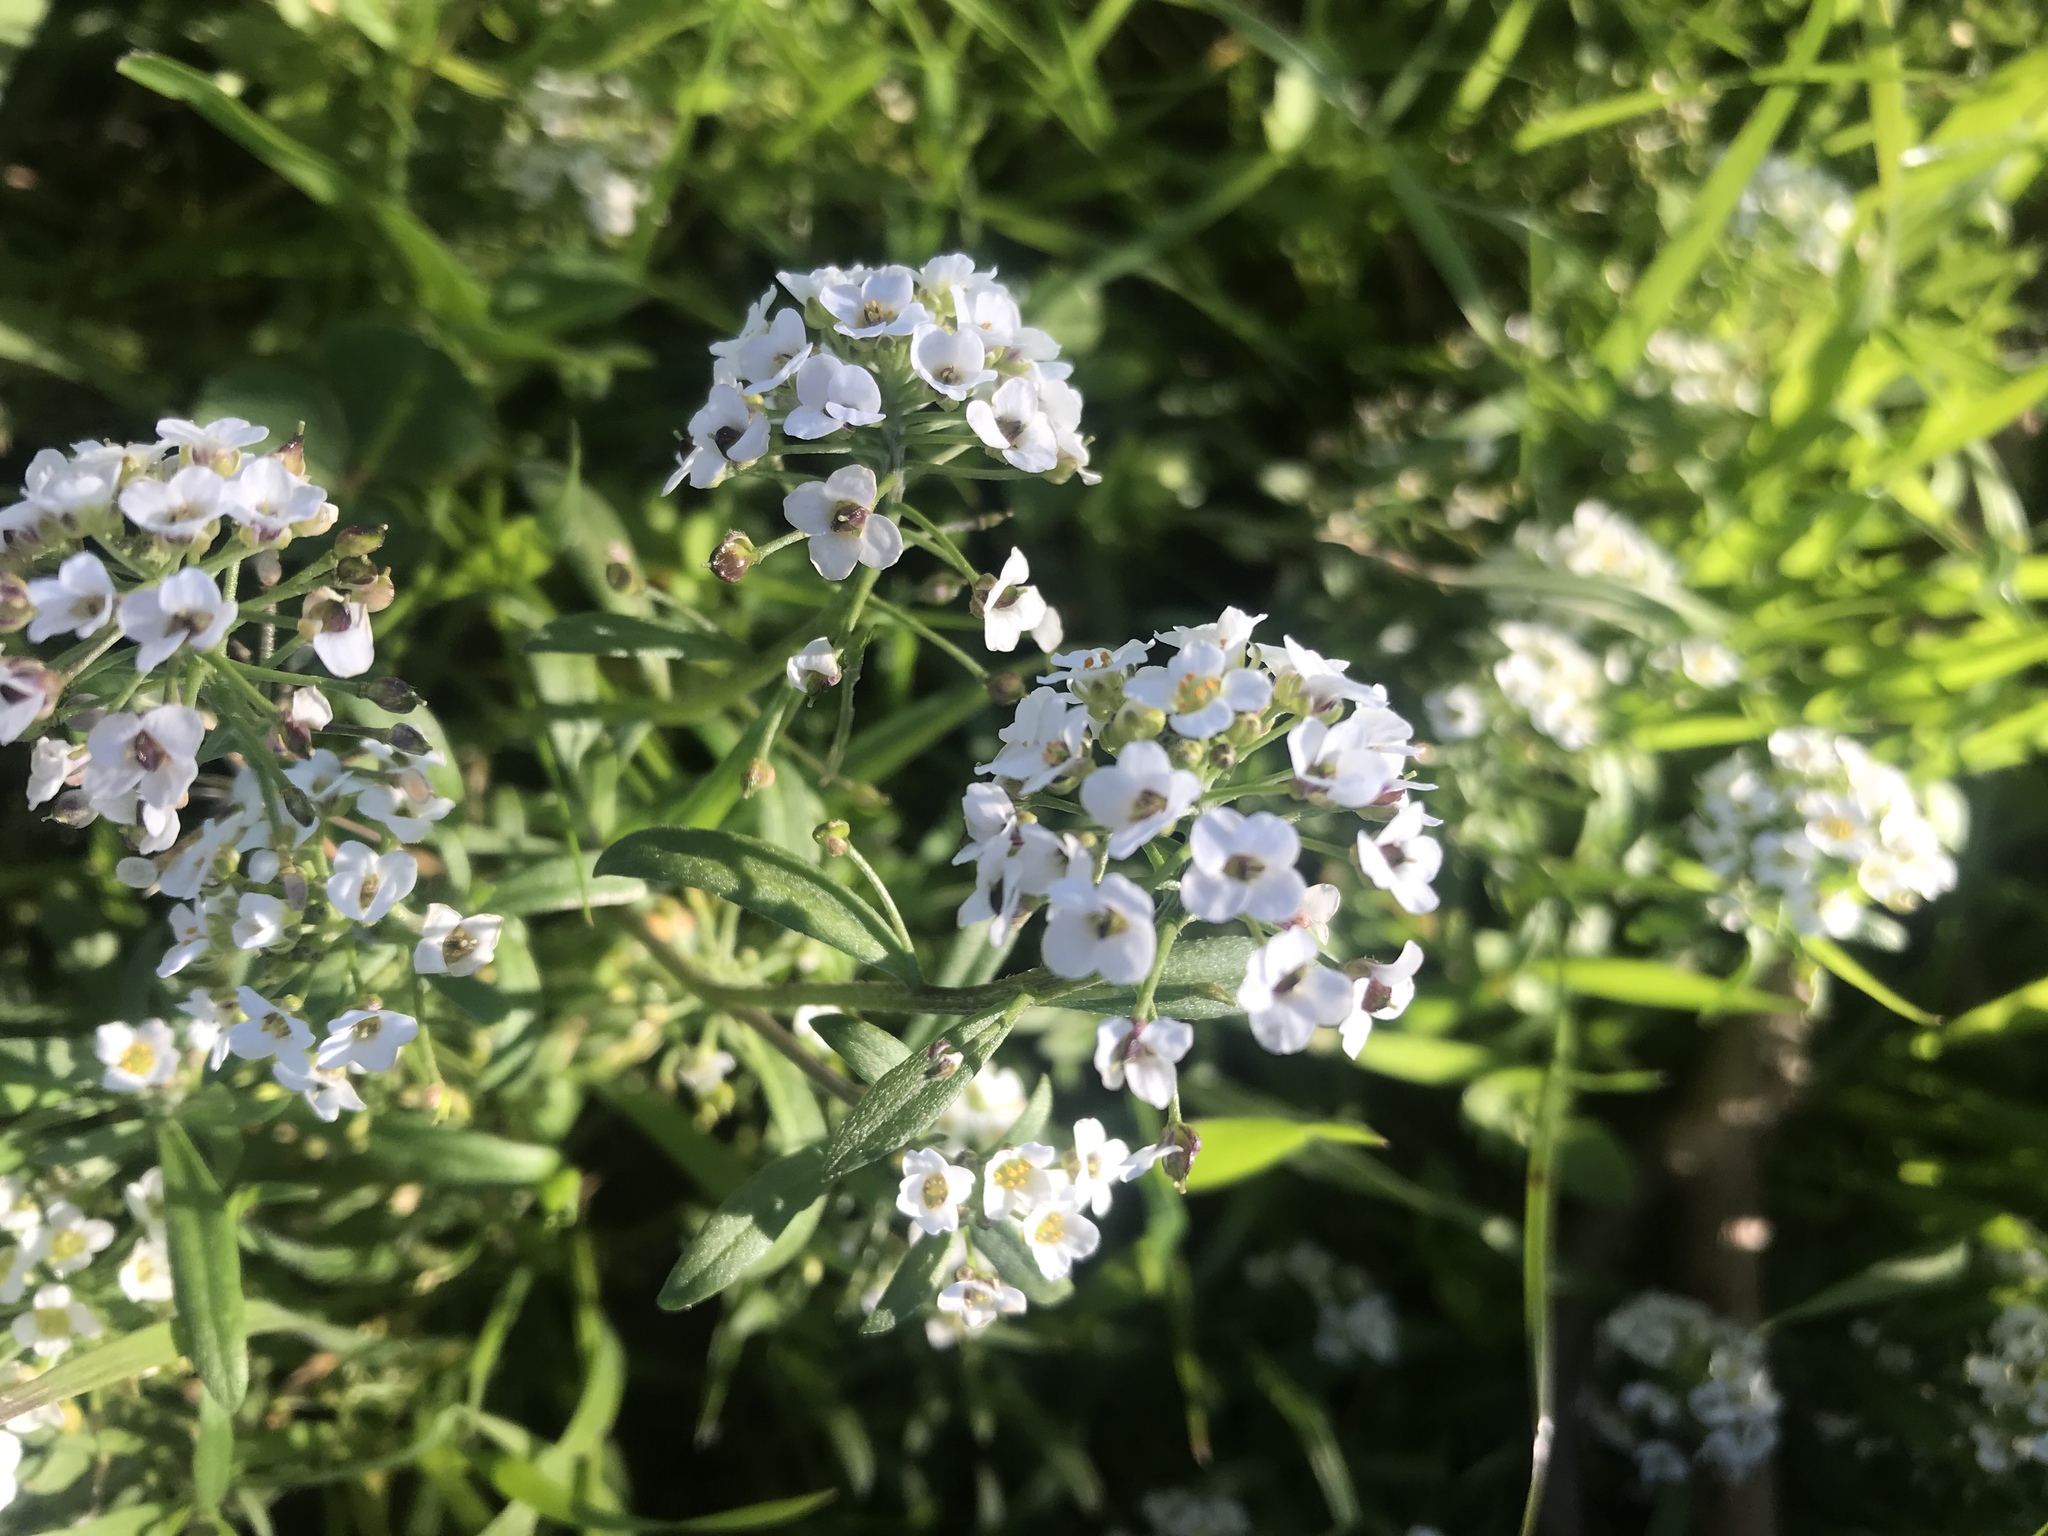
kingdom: Plantae
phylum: Tracheophyta
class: Magnoliopsida
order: Brassicales
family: Brassicaceae
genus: Lobularia
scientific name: Lobularia maritima
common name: Sweet alison
